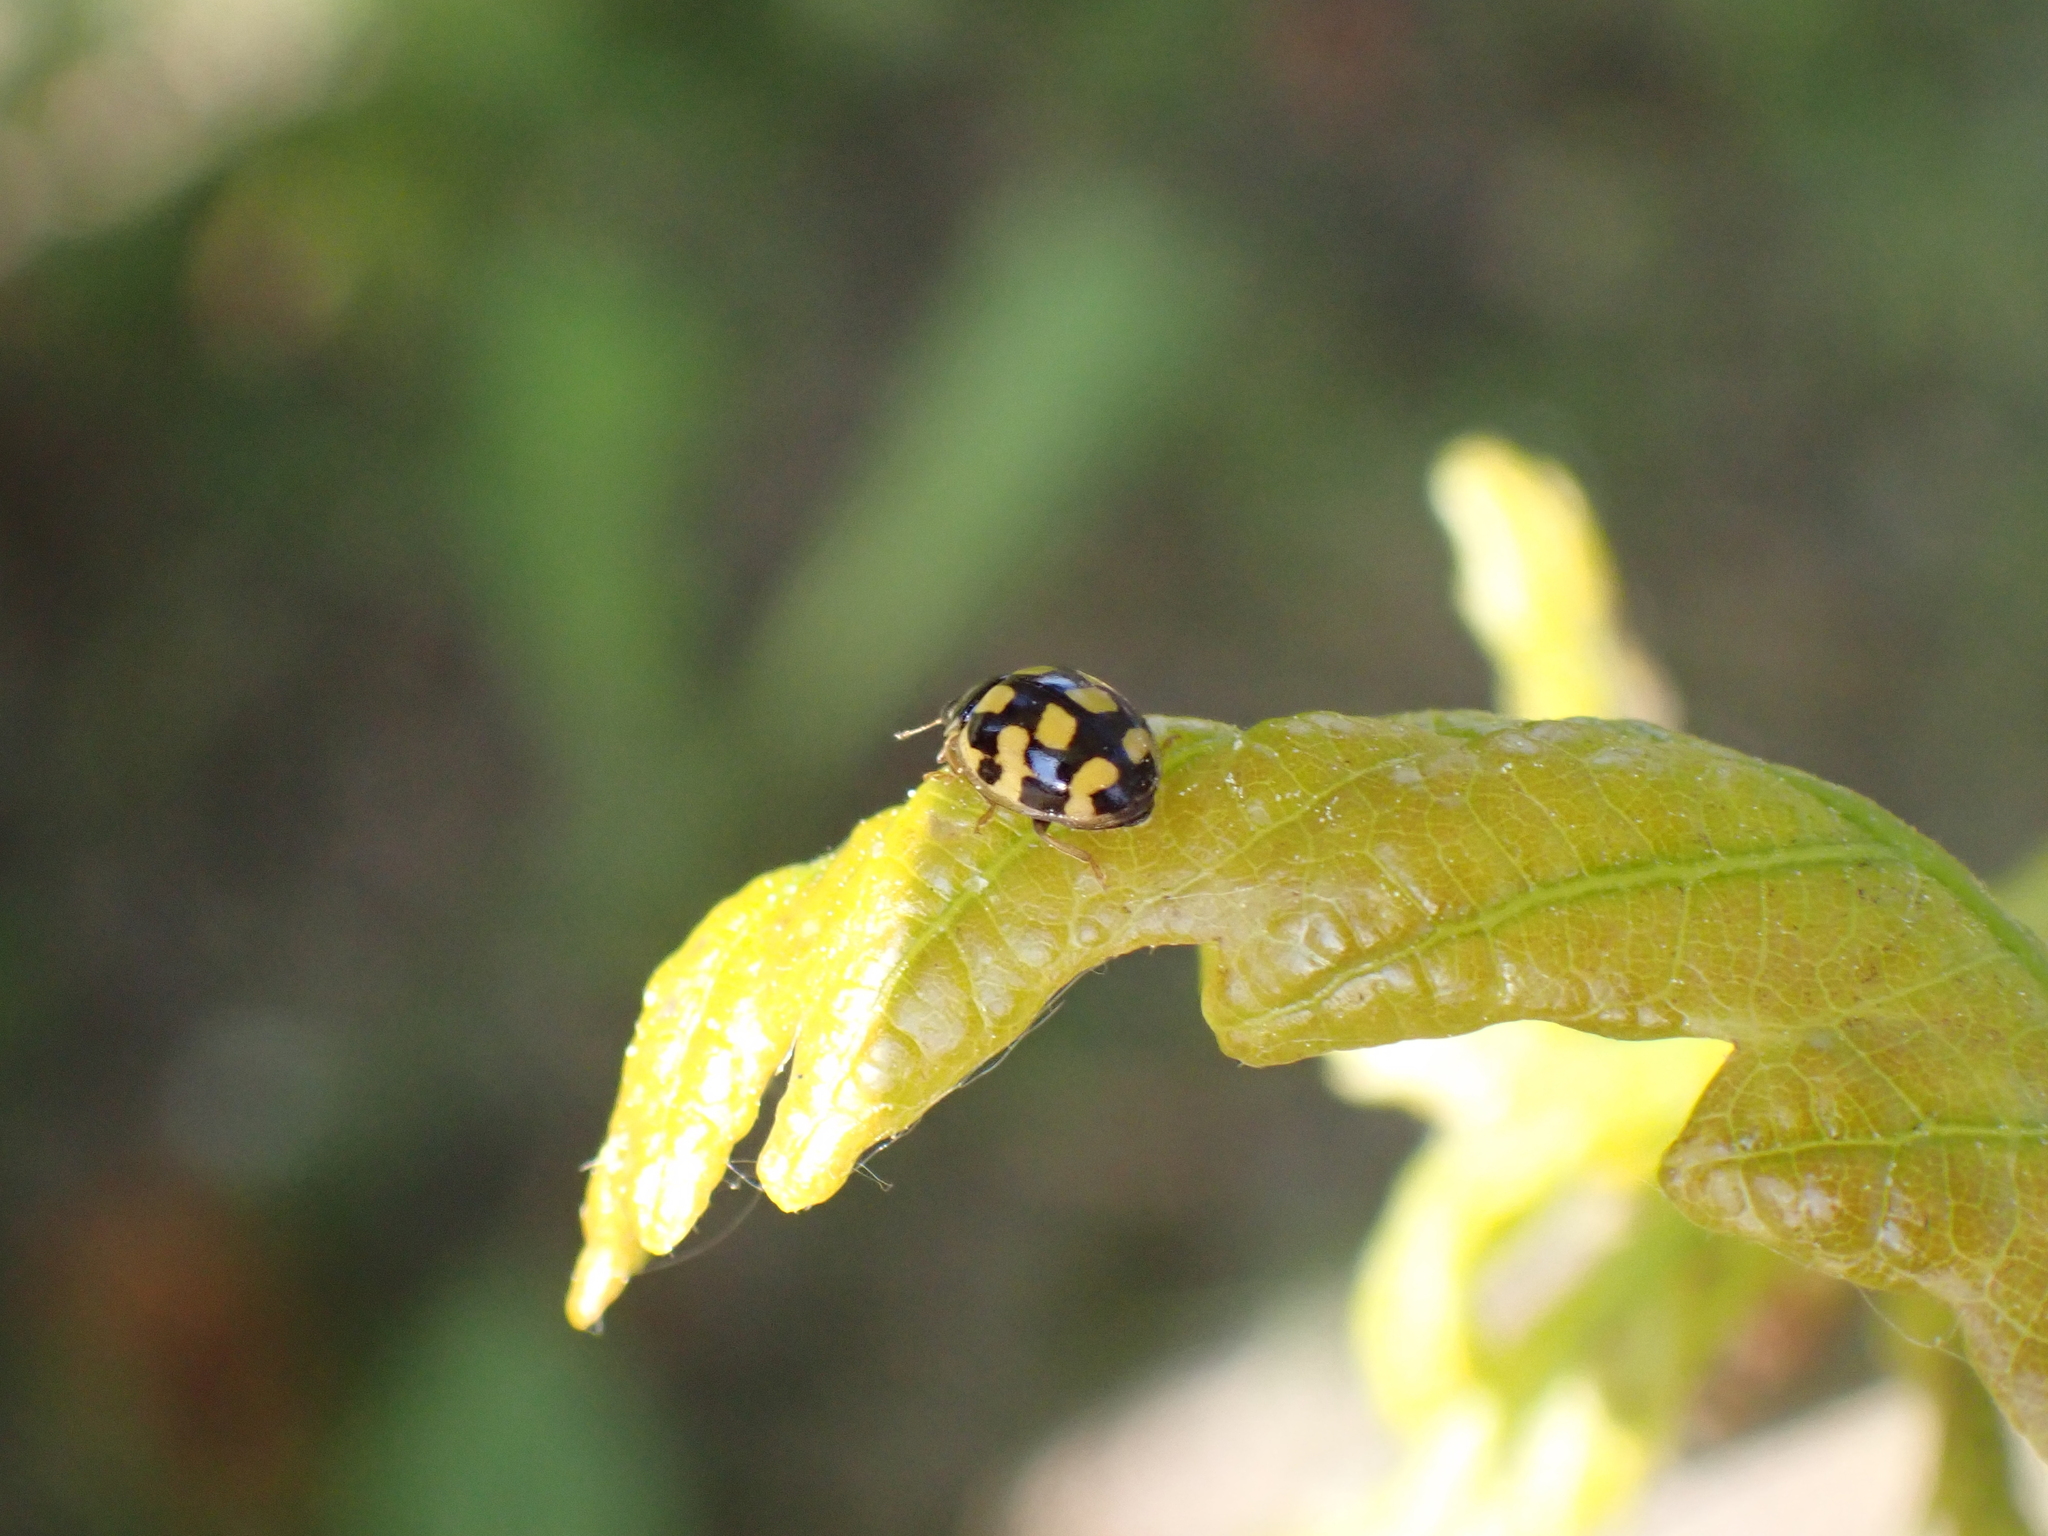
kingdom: Animalia
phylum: Arthropoda
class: Insecta
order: Coleoptera
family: Coccinellidae
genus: Propylaea
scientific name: Propylaea quatuordecimpunctata
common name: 14-spotted ladybird beetle
